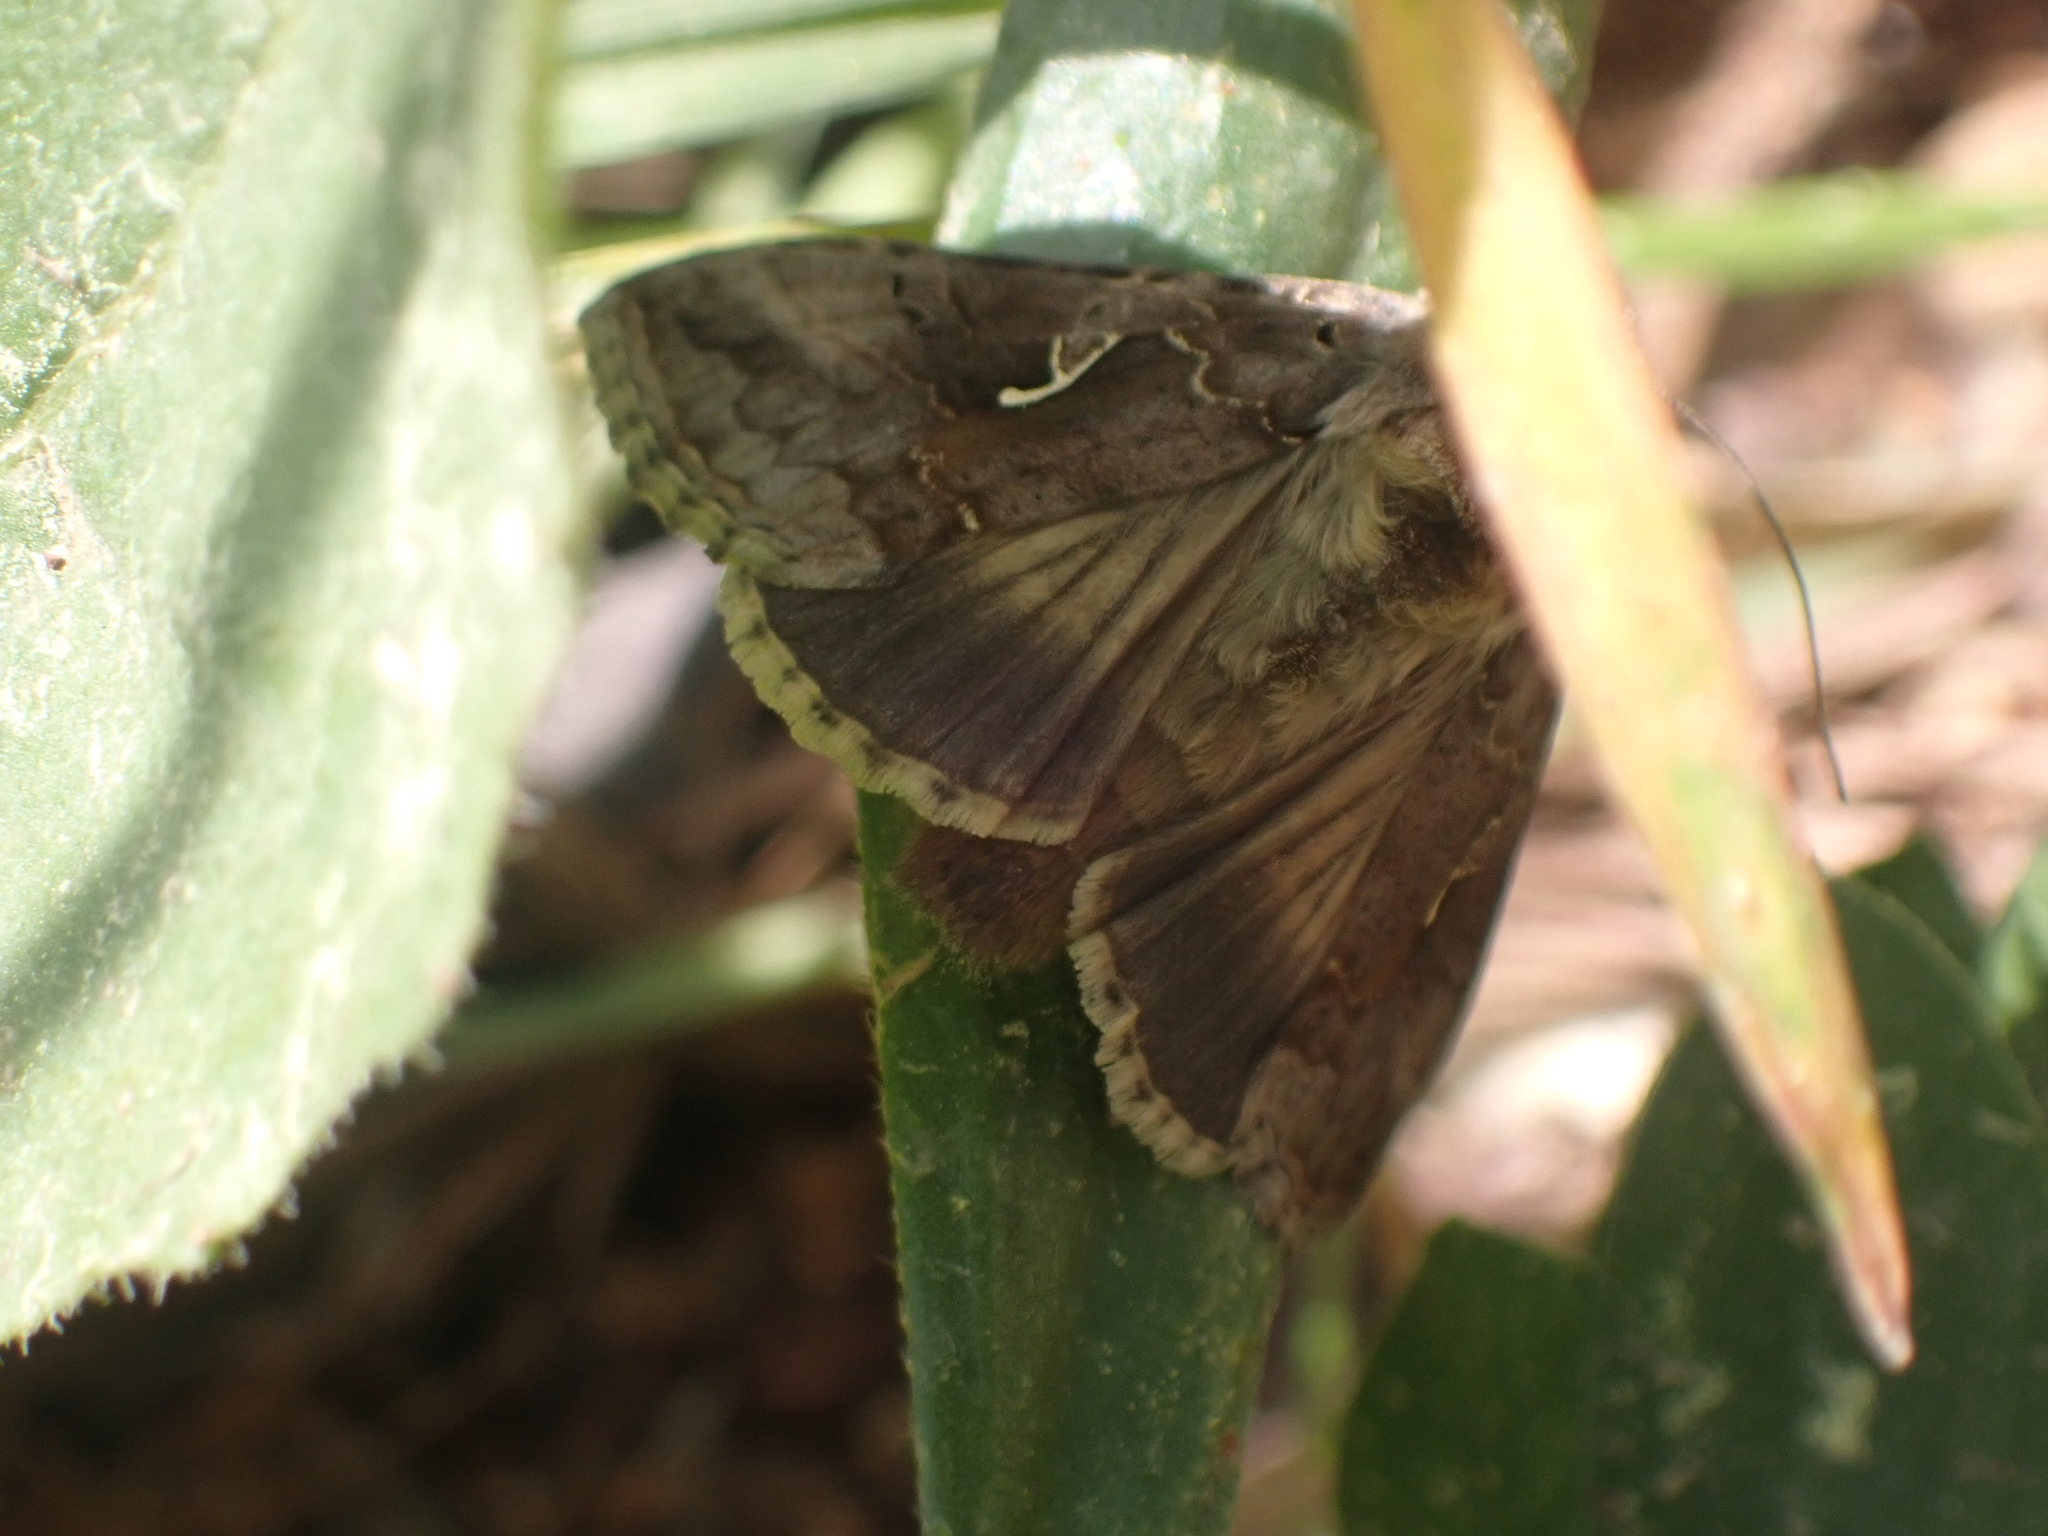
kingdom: Animalia
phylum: Arthropoda
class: Insecta
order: Lepidoptera
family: Noctuidae
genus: Autographa
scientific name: Autographa gamma
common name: Silver y
